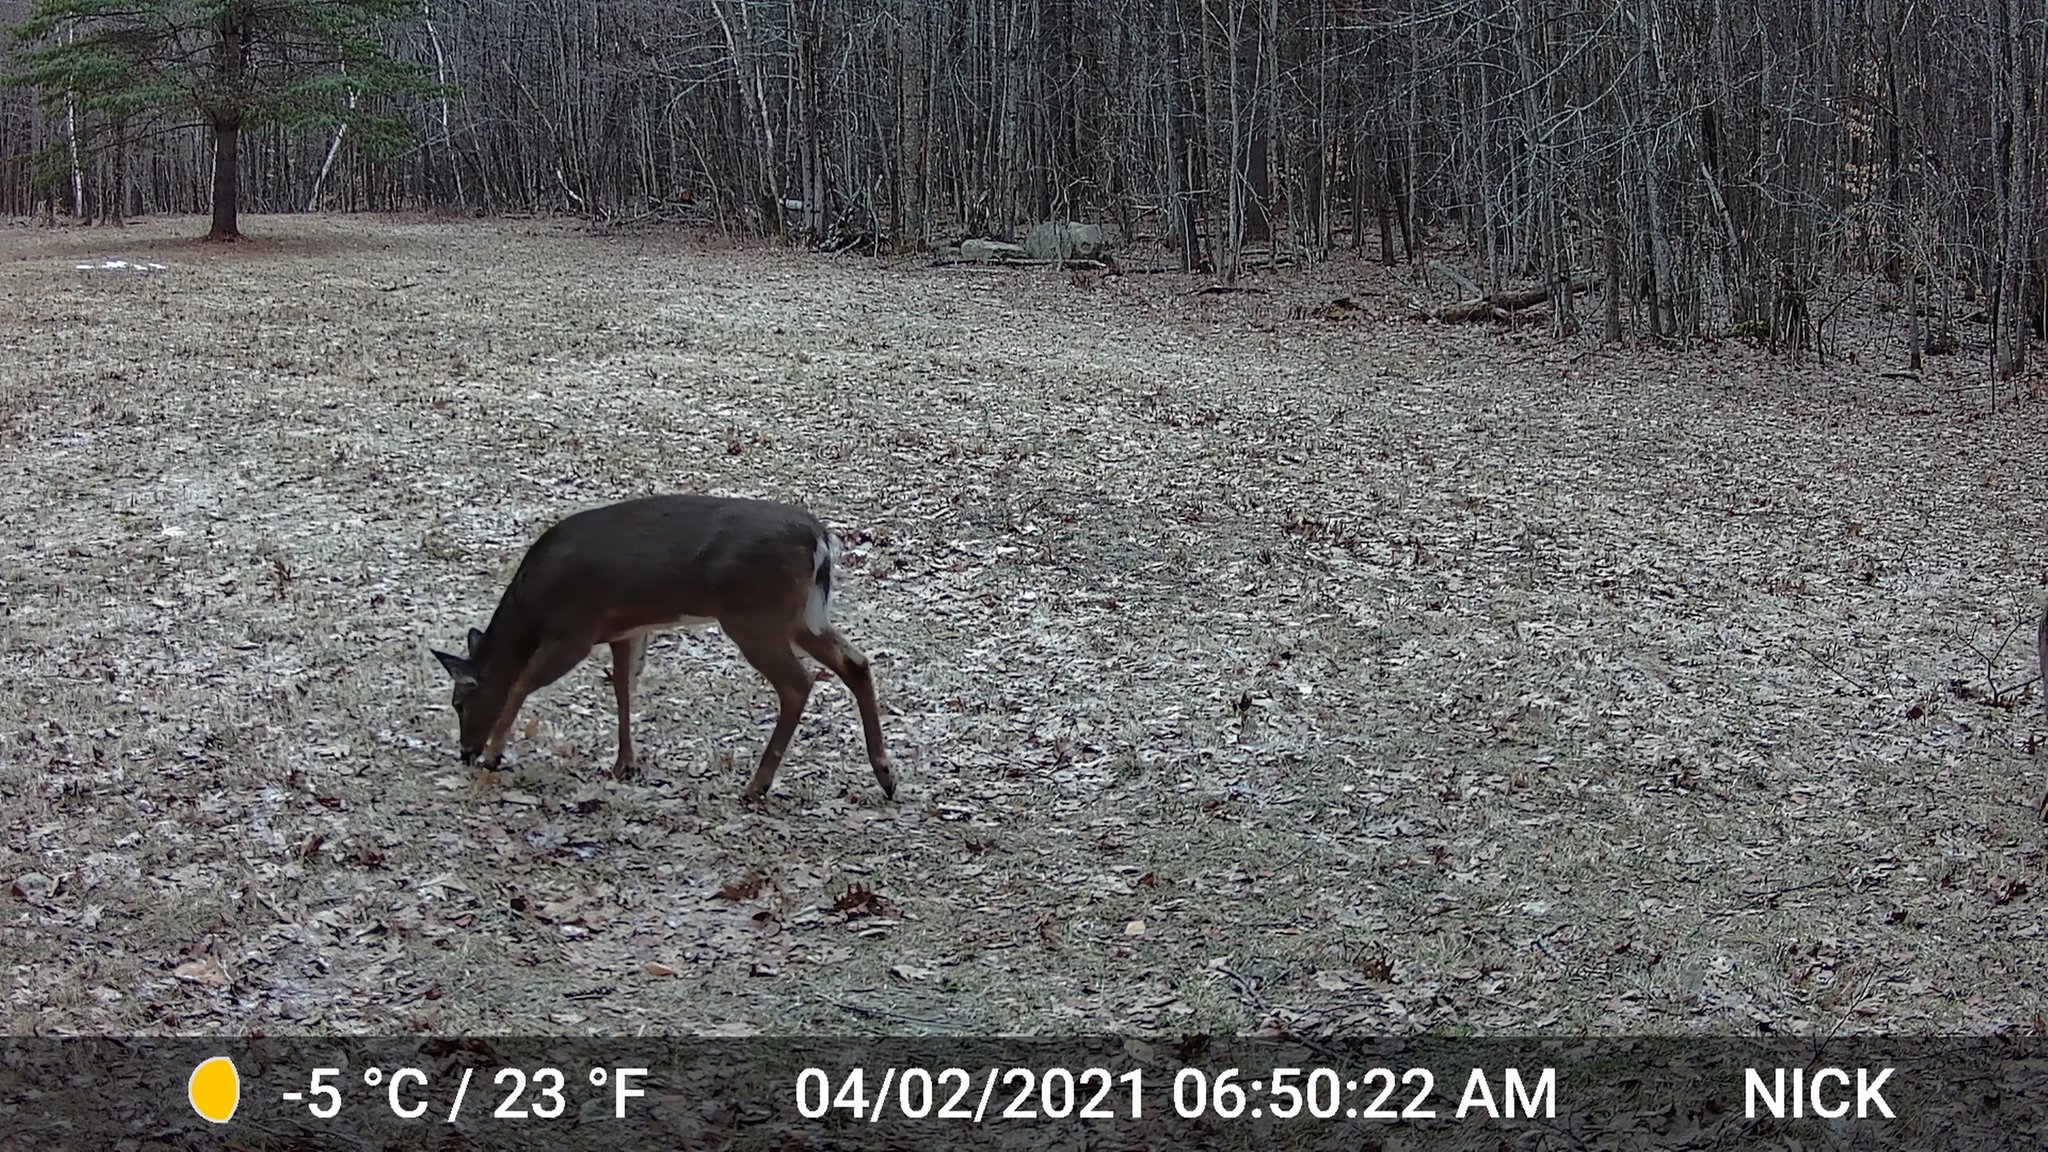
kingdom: Animalia
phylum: Chordata
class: Mammalia
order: Artiodactyla
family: Cervidae
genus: Odocoileus
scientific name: Odocoileus virginianus
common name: White-tailed deer
